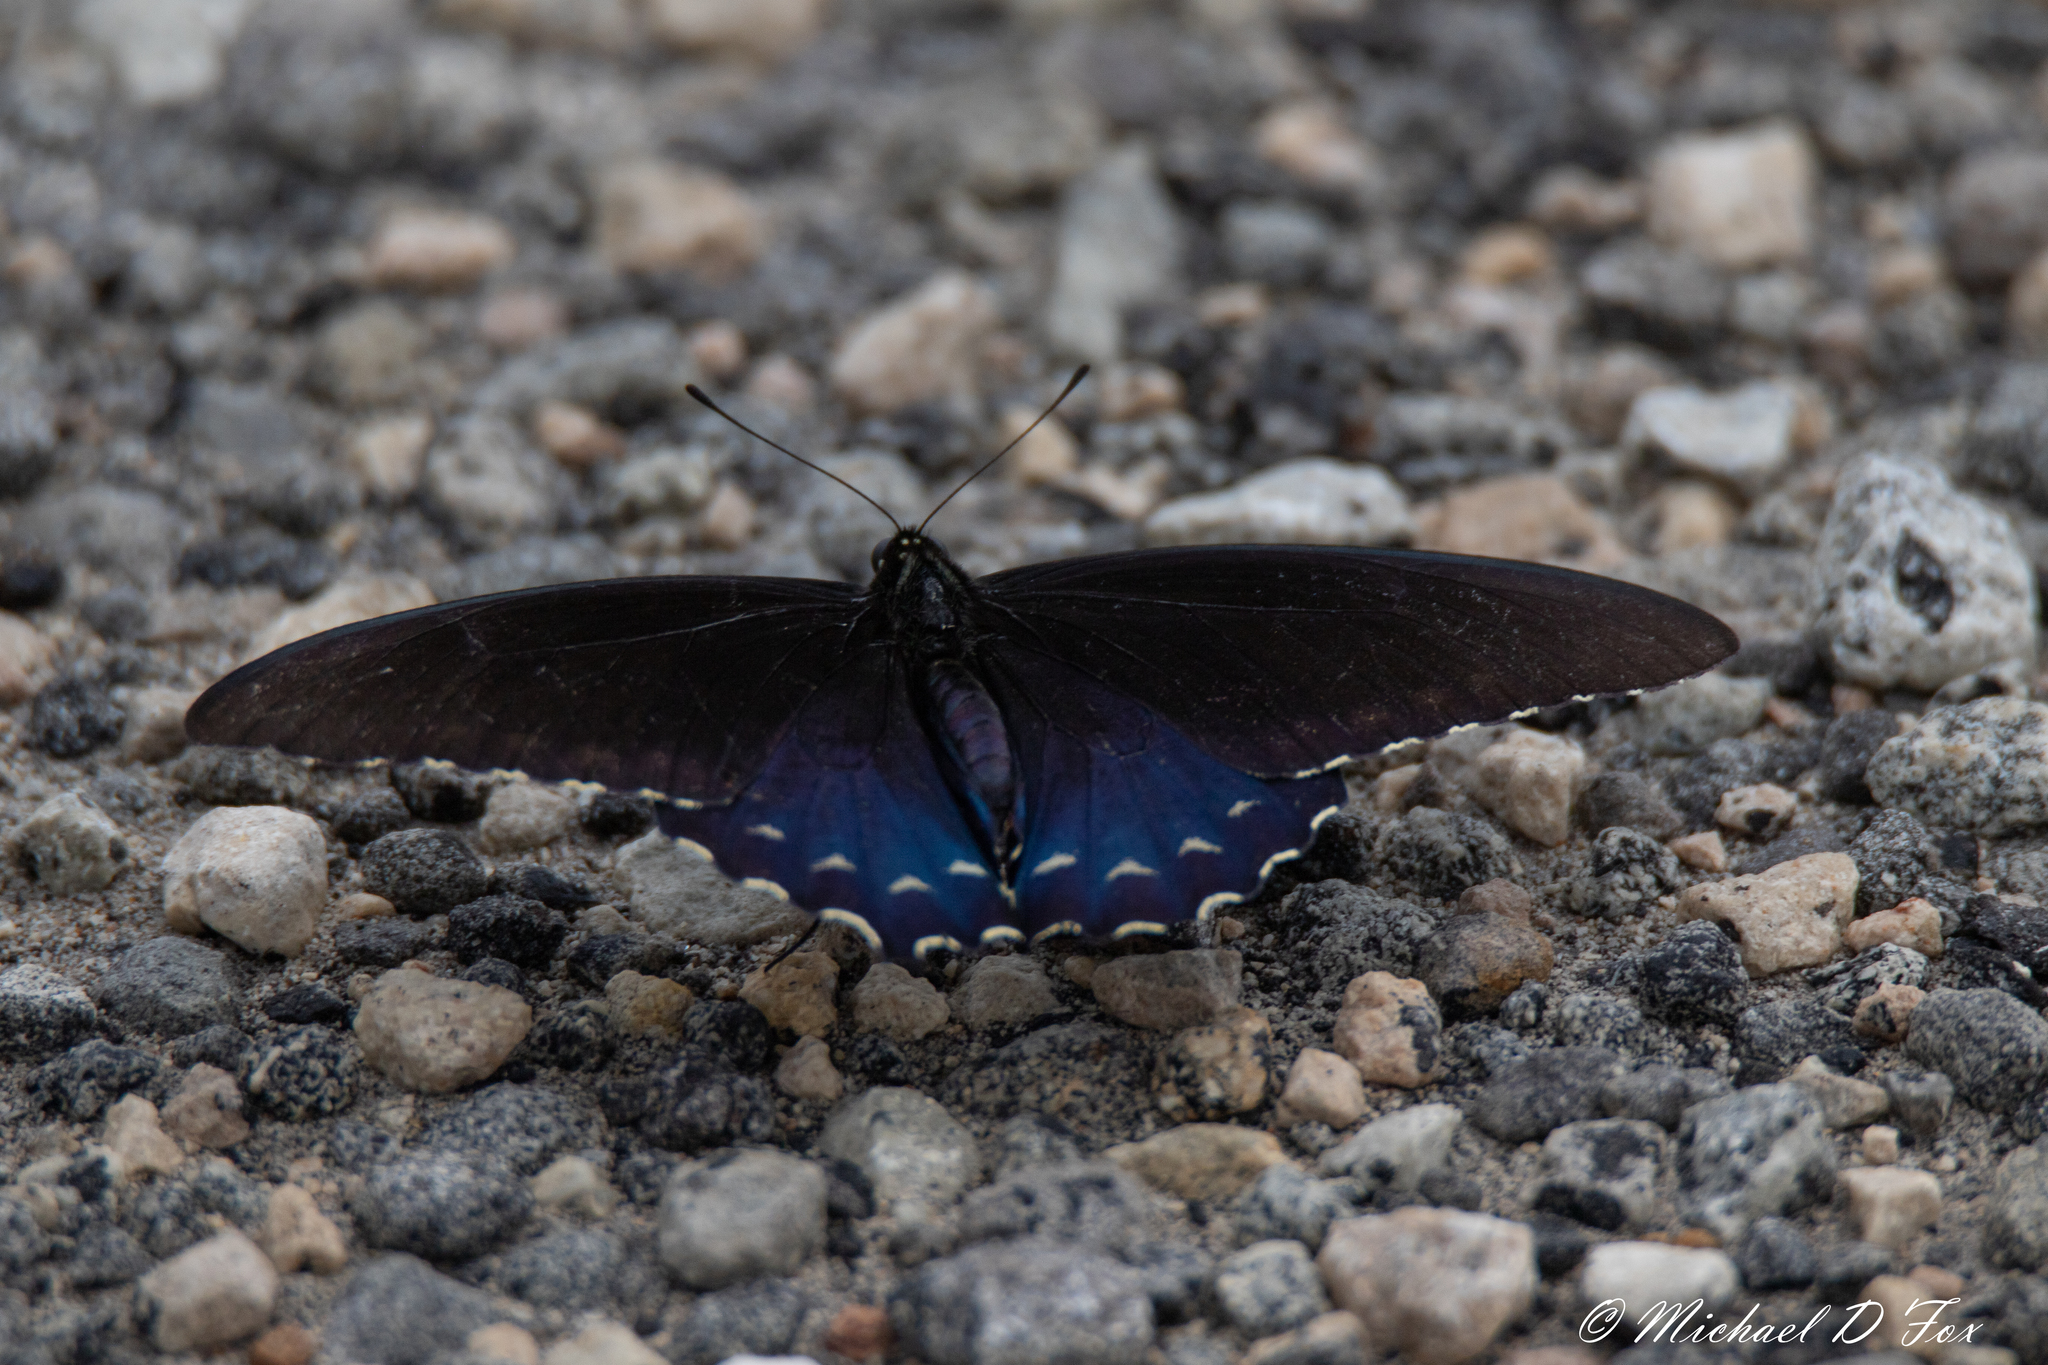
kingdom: Animalia
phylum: Arthropoda
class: Insecta
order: Lepidoptera
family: Papilionidae
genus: Battus
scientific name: Battus philenor
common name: Pipevine swallowtail
